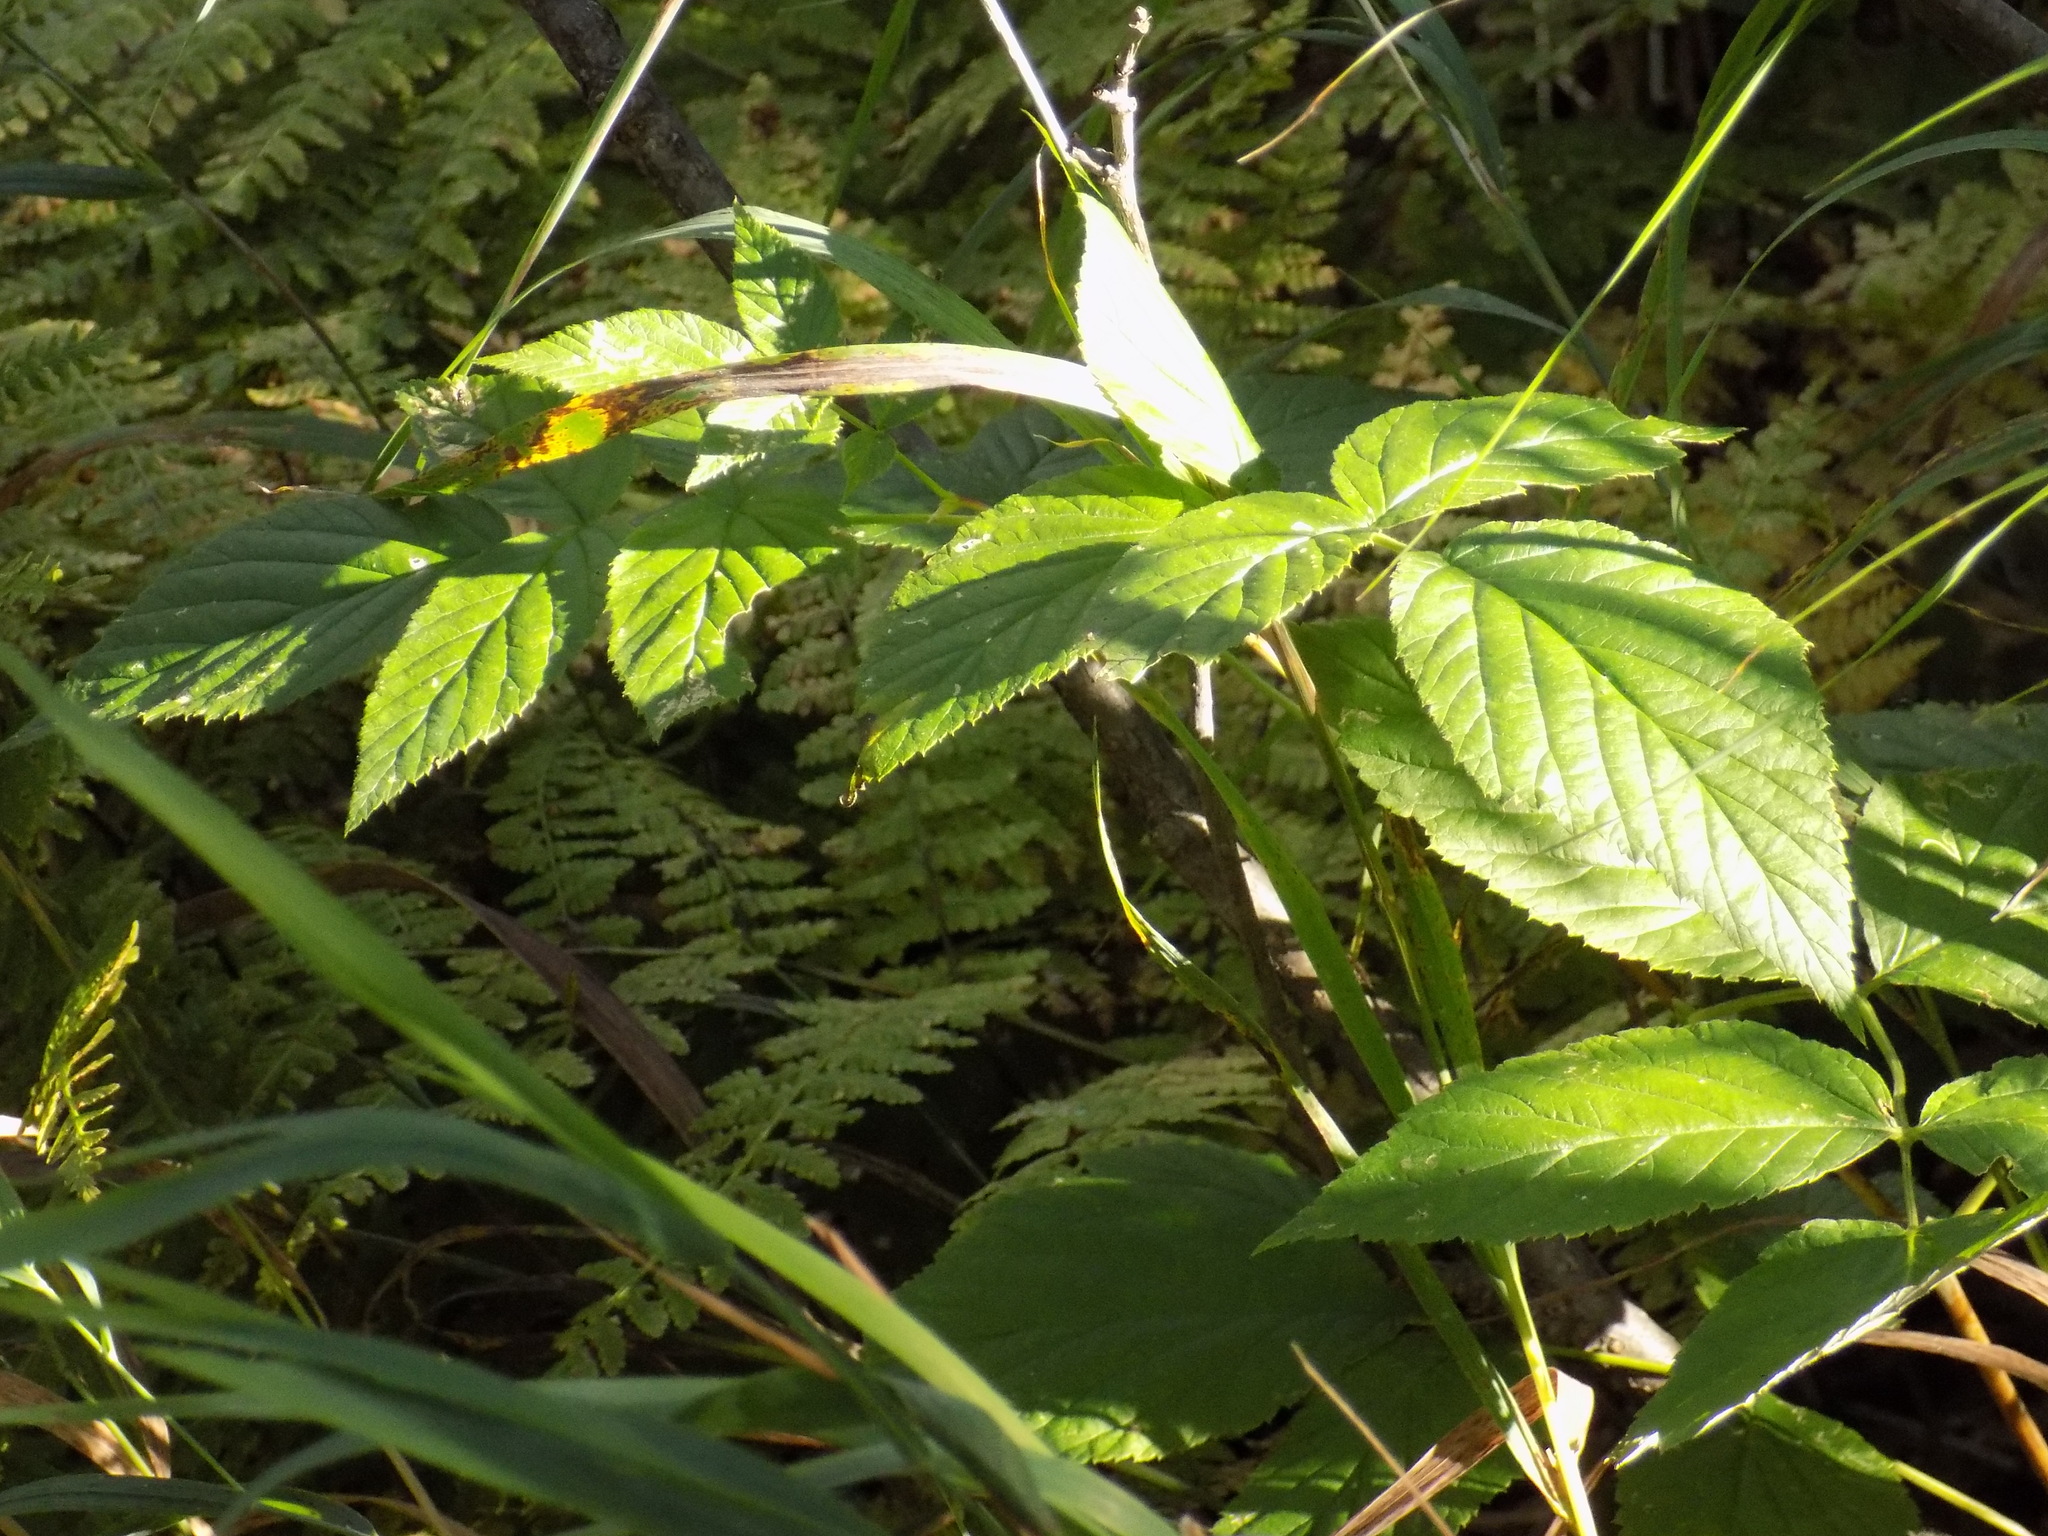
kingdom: Plantae
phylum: Tracheophyta
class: Magnoliopsida
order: Rosales
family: Rosaceae
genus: Rubus
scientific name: Rubus idaeus
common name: Raspberry
